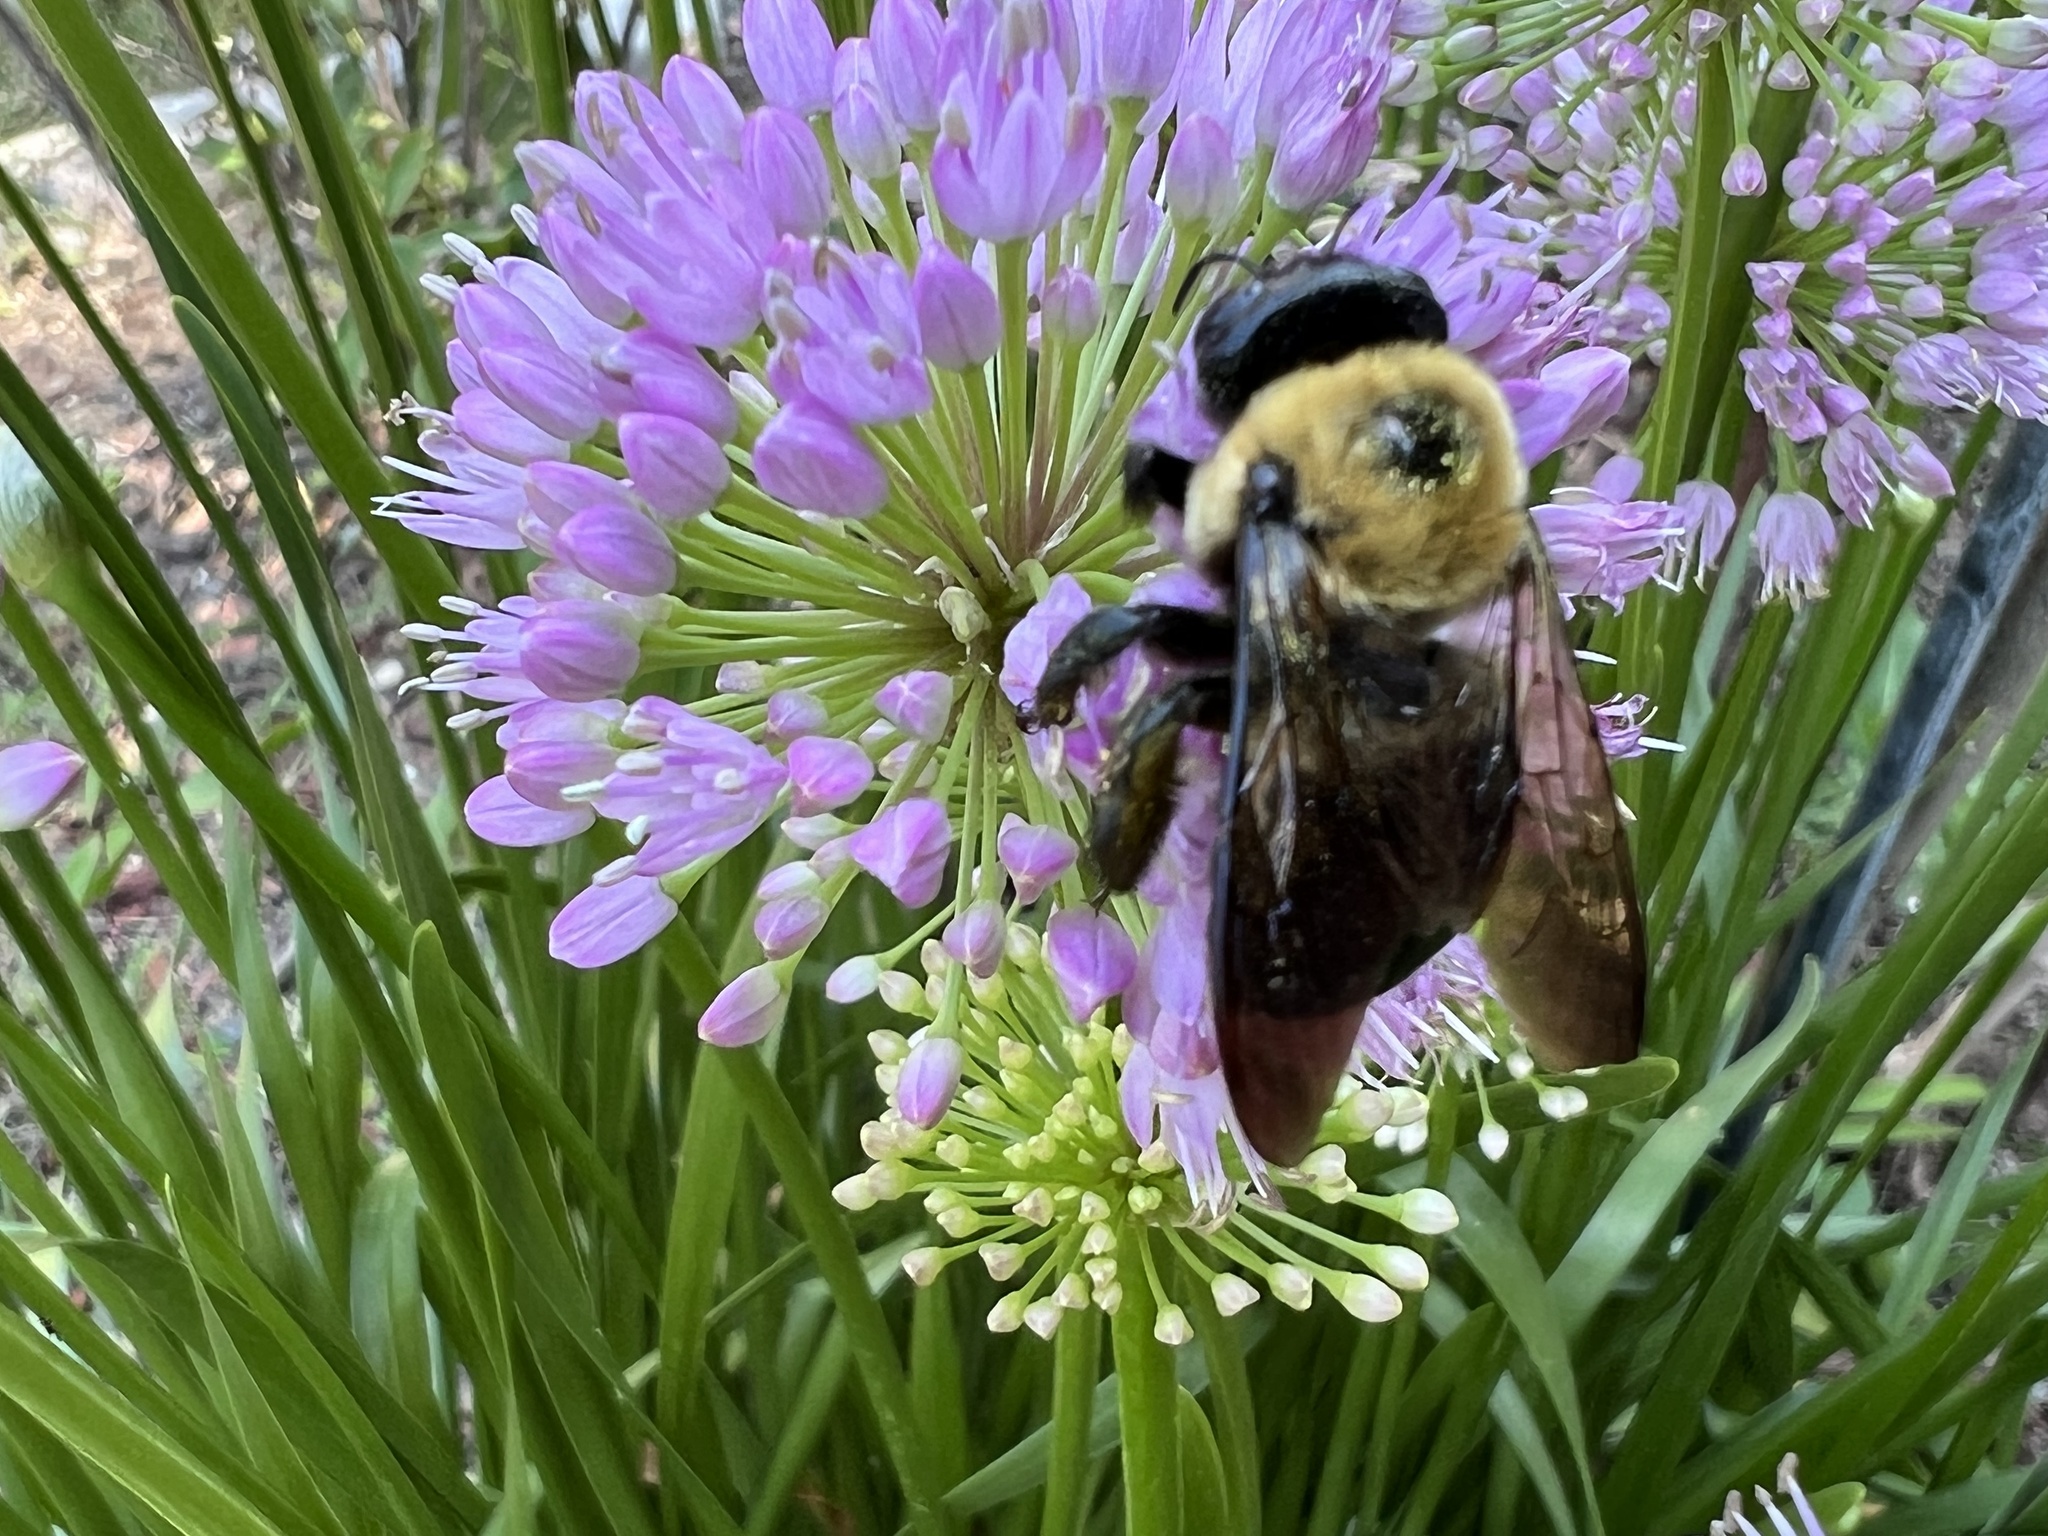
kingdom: Animalia
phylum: Arthropoda
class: Insecta
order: Hymenoptera
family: Apidae
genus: Xylocopa
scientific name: Xylocopa virginica
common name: Carpenter bee
